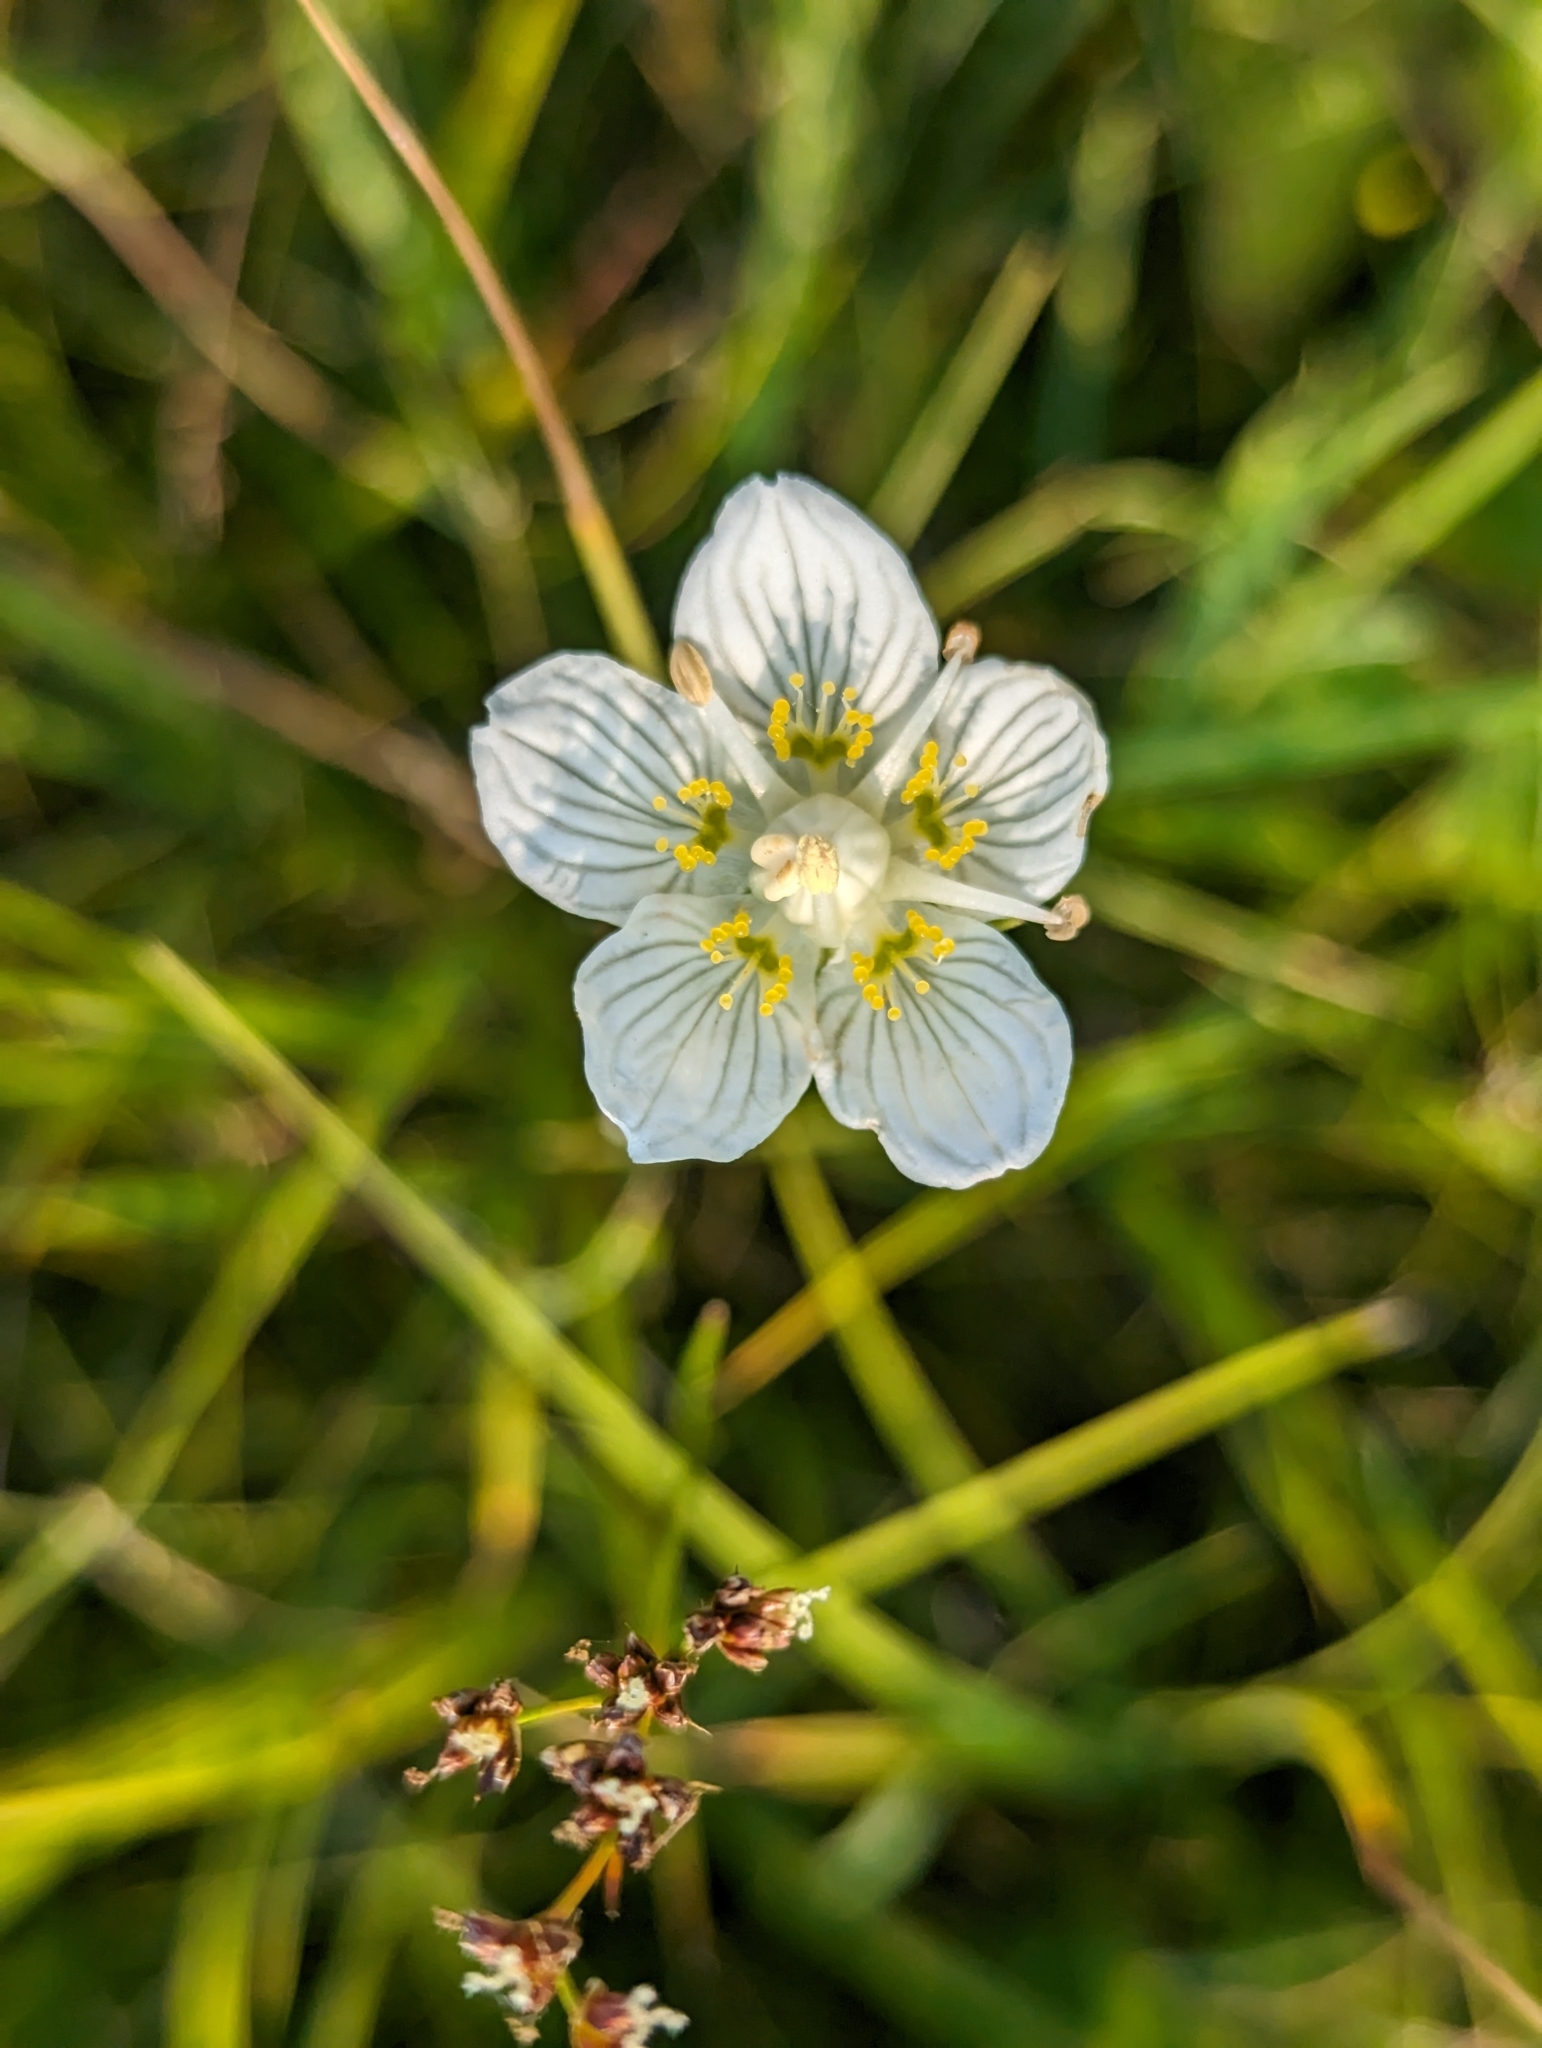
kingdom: Plantae
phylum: Tracheophyta
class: Magnoliopsida
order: Celastrales
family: Parnassiaceae
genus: Parnassia
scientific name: Parnassia palustris
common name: Grass-of-parnassus
